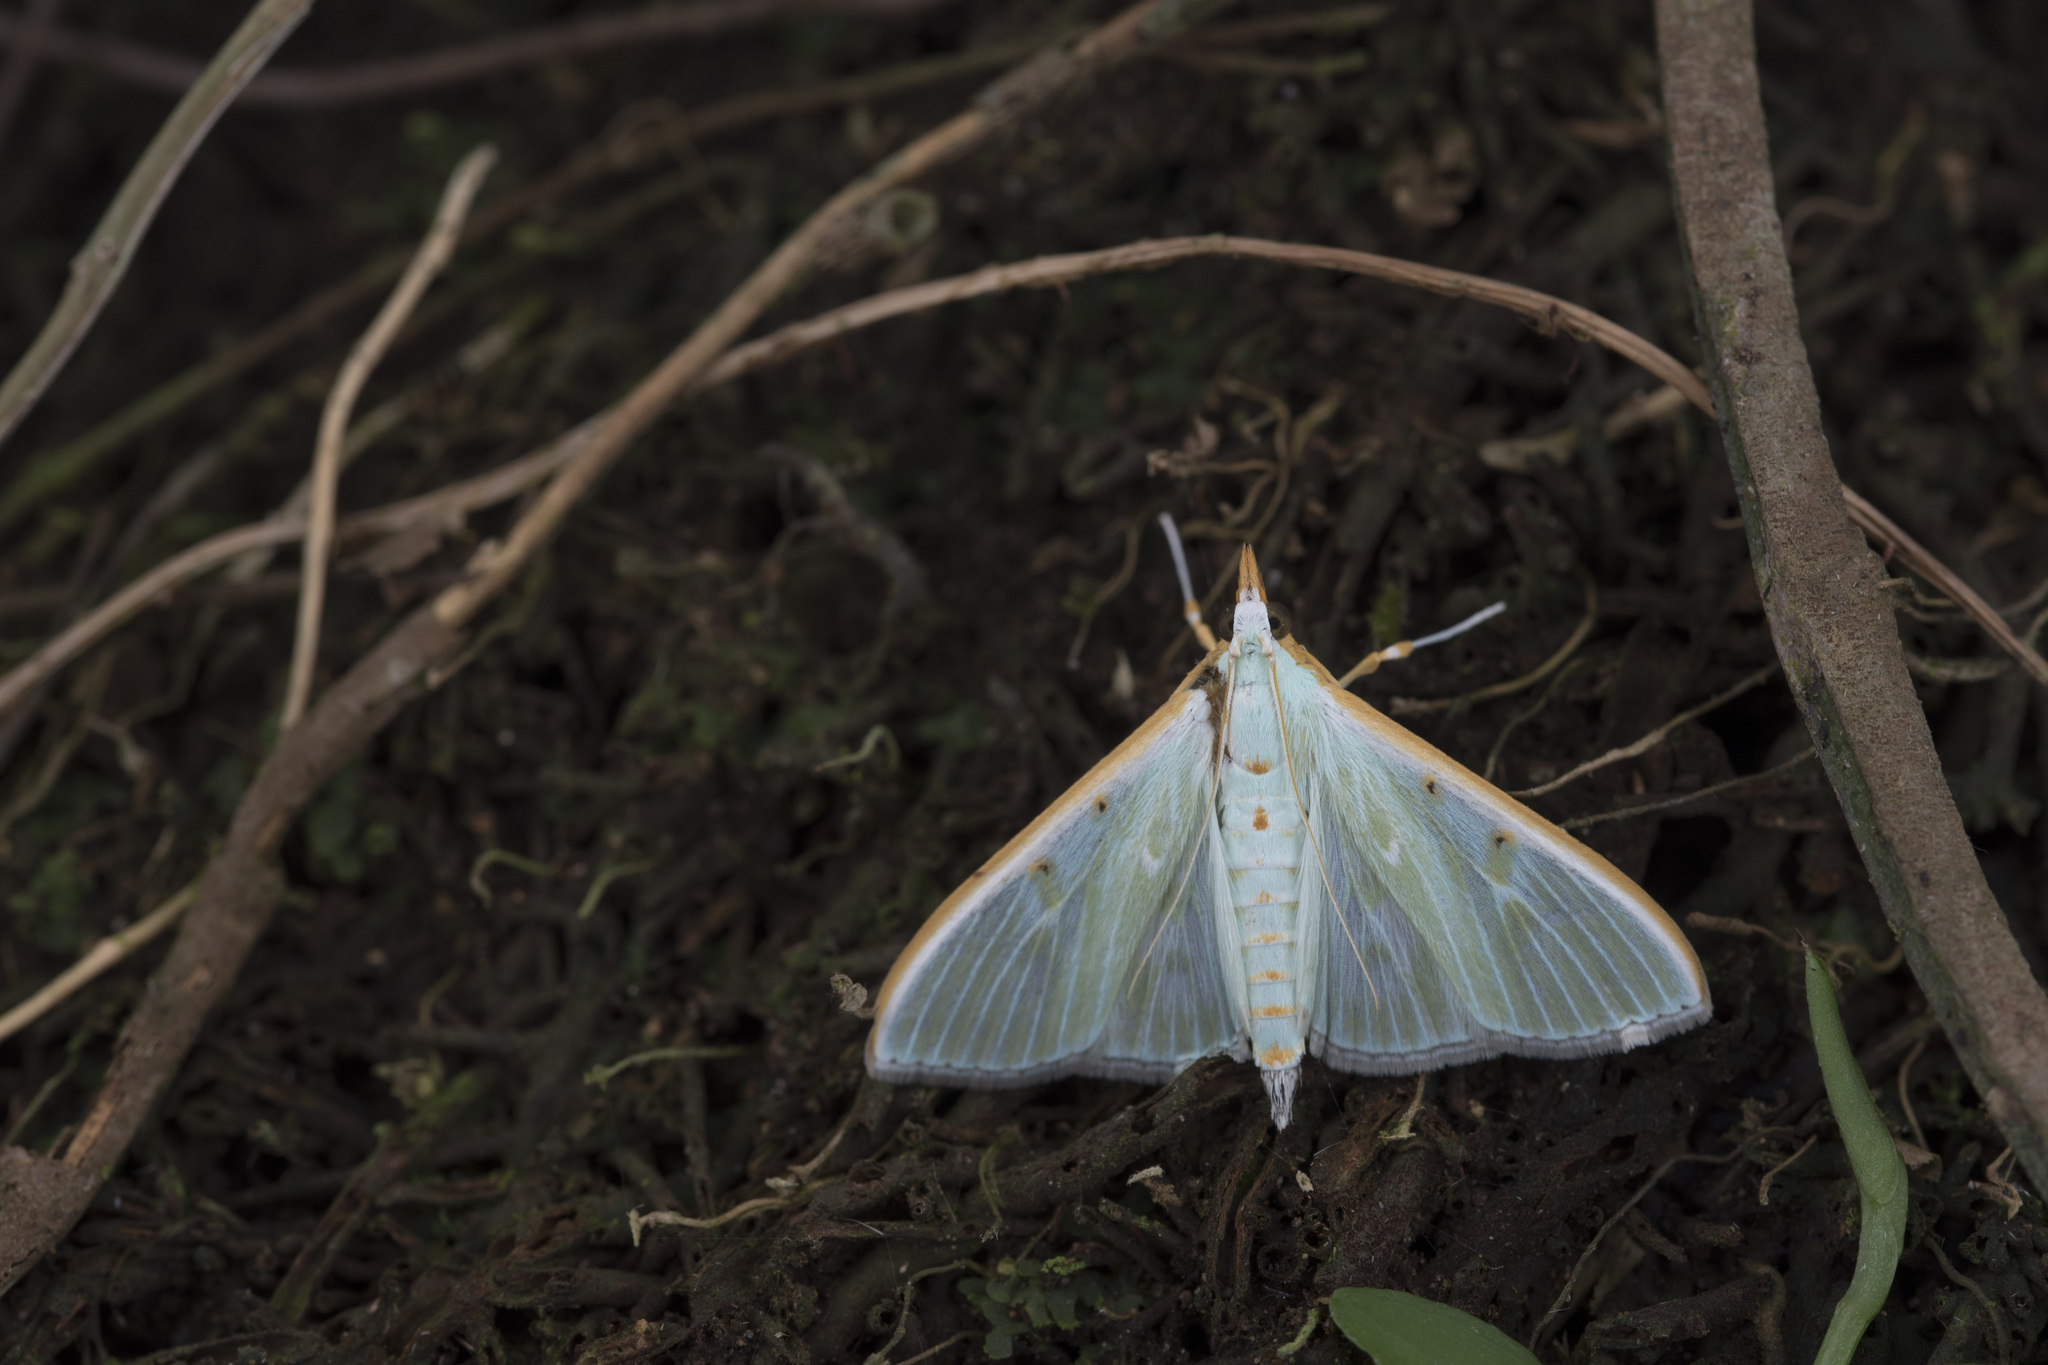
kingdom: Animalia
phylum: Arthropoda
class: Insecta
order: Lepidoptera
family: Crambidae
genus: Arthroschista
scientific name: Arthroschista hilaralis
